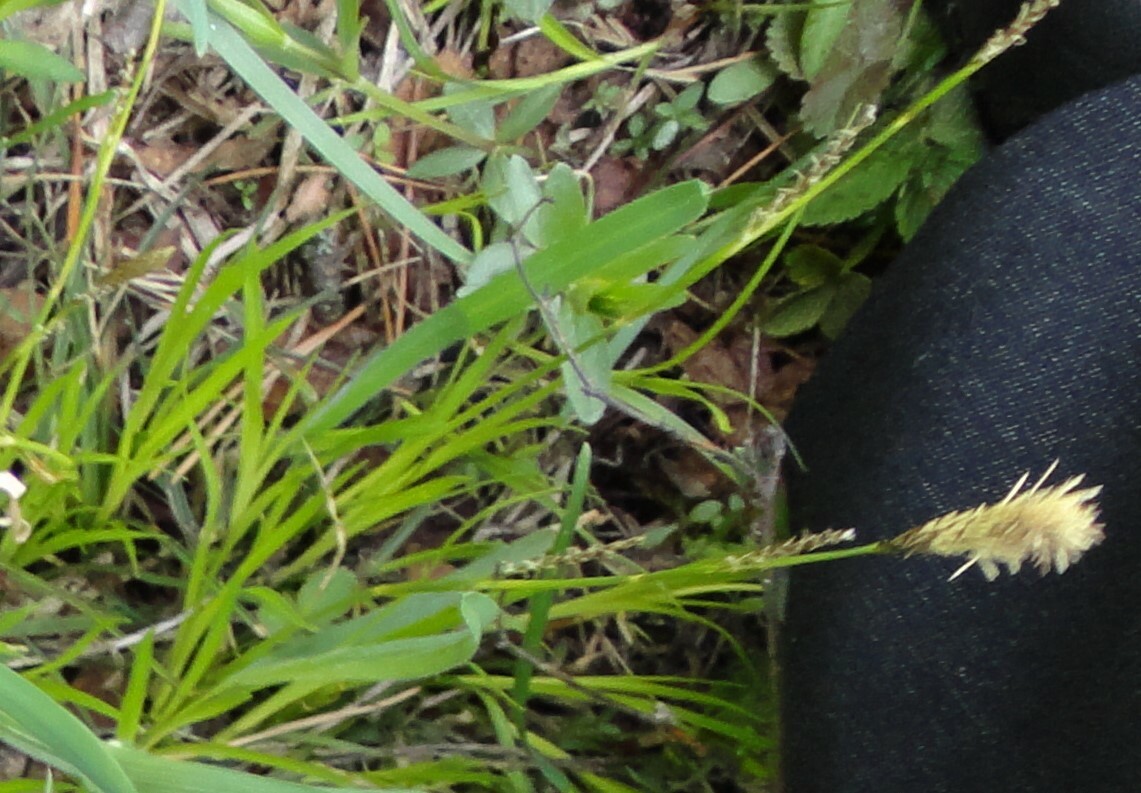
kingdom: Plantae
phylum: Tracheophyta
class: Liliopsida
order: Poales
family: Cyperaceae
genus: Carex
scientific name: Carex pediformis
